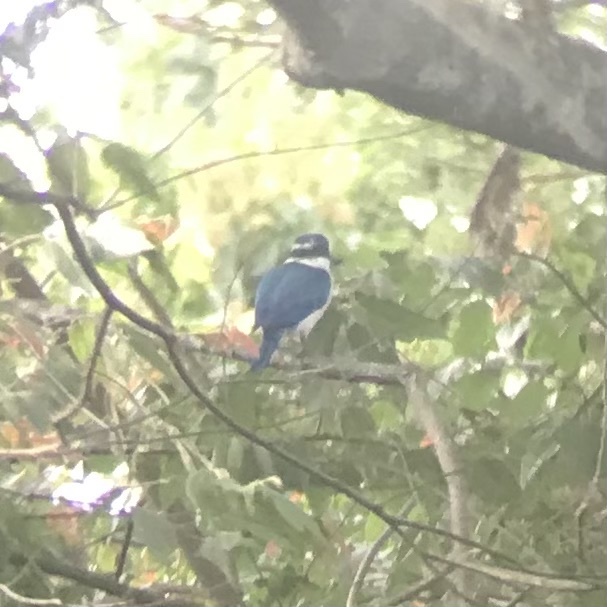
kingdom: Animalia
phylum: Chordata
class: Aves
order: Coraciiformes
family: Alcedinidae
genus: Todiramphus
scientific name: Todiramphus chloris
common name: Collared kingfisher
